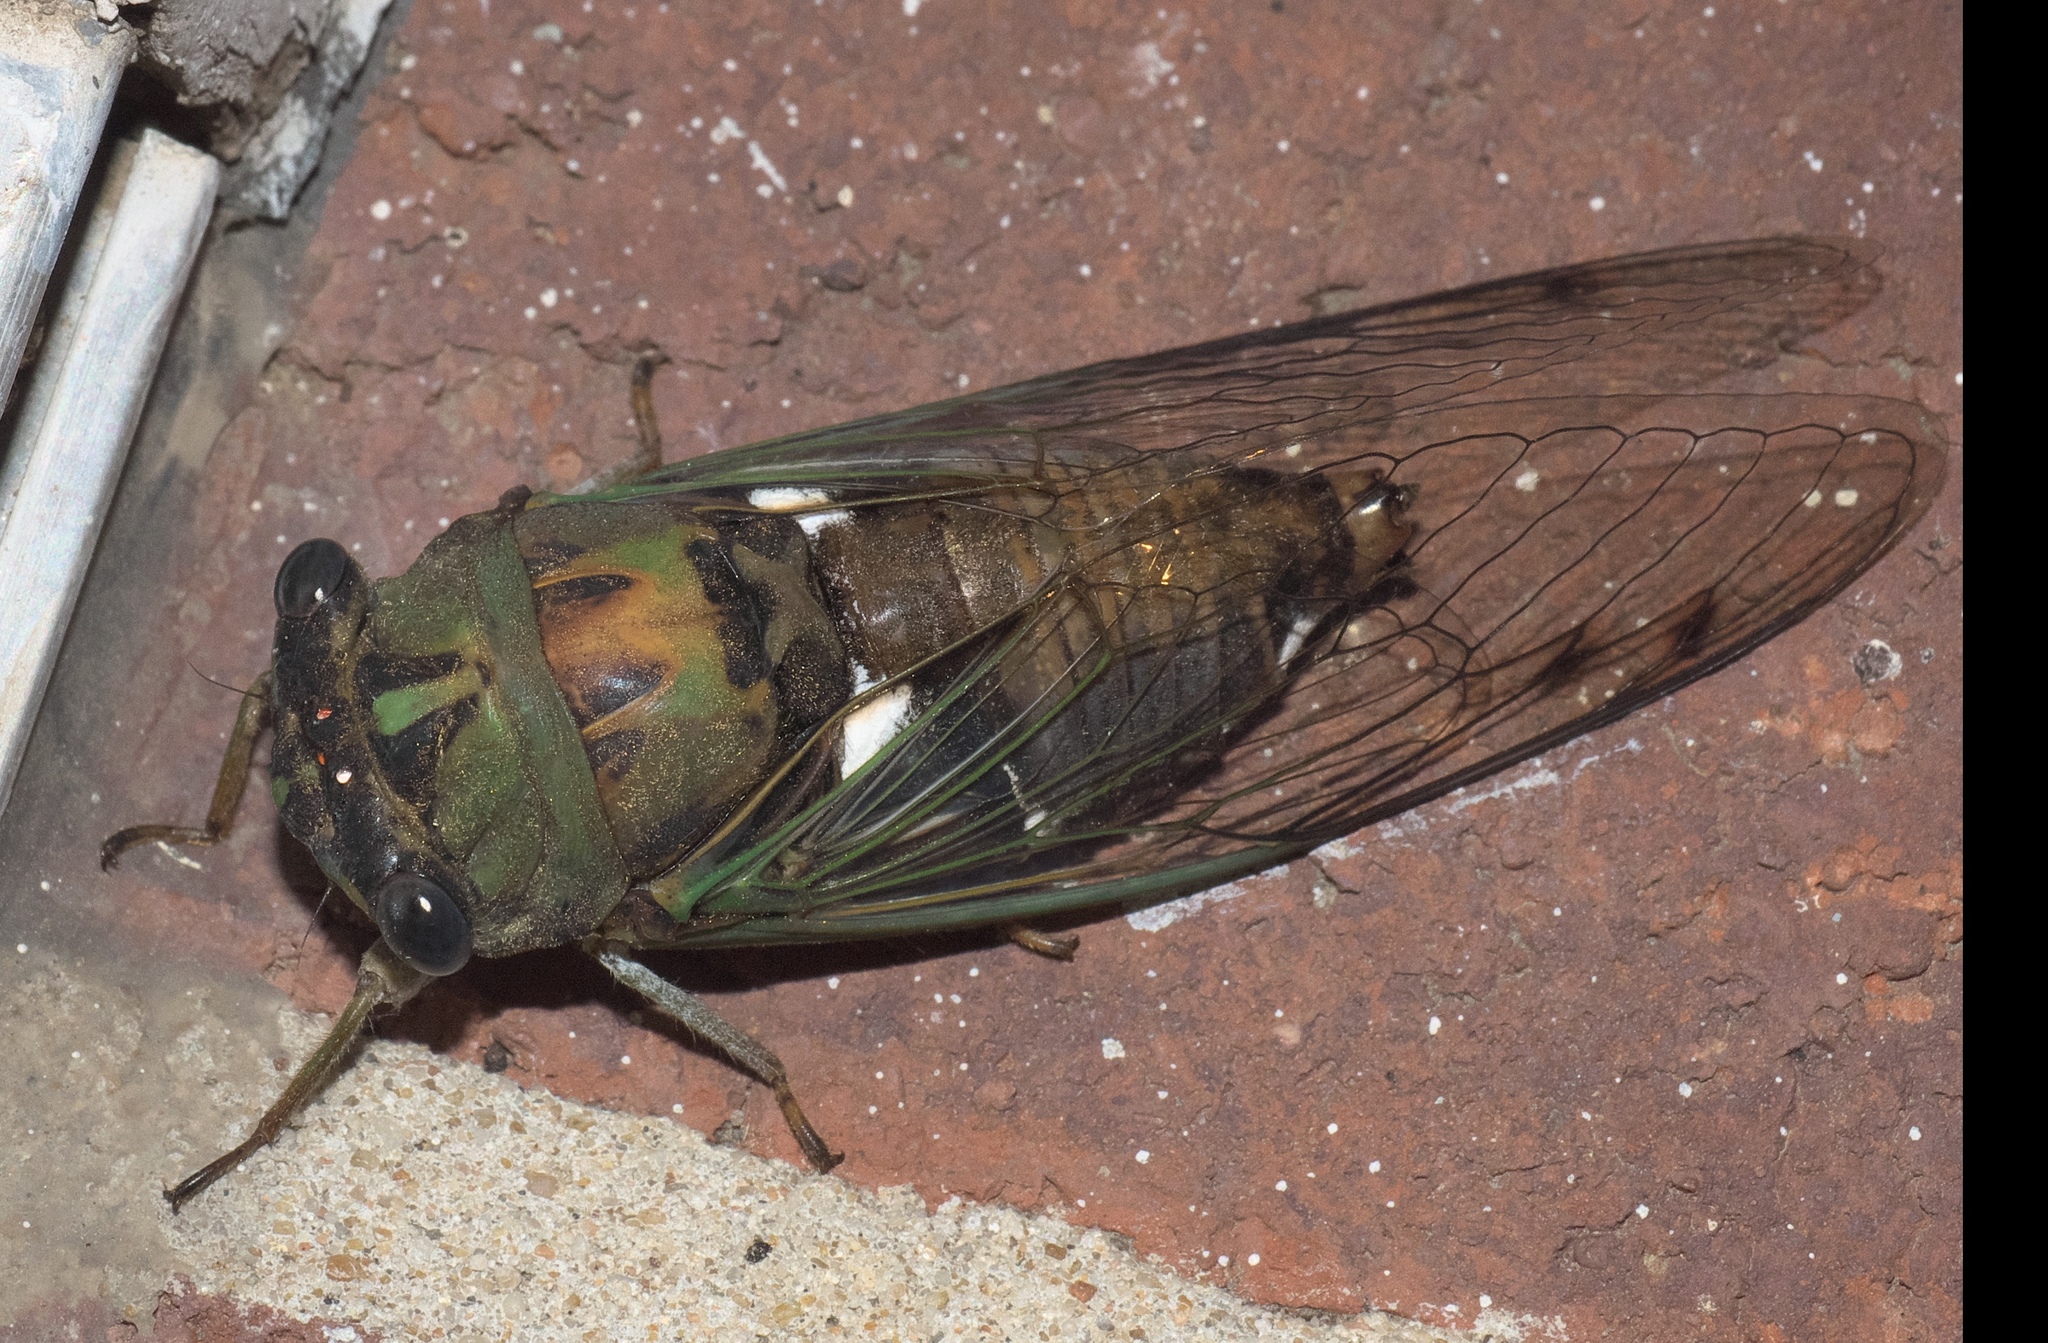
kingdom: Animalia
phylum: Arthropoda
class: Insecta
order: Hemiptera
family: Cicadidae
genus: Neotibicen
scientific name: Neotibicen pruinosus
